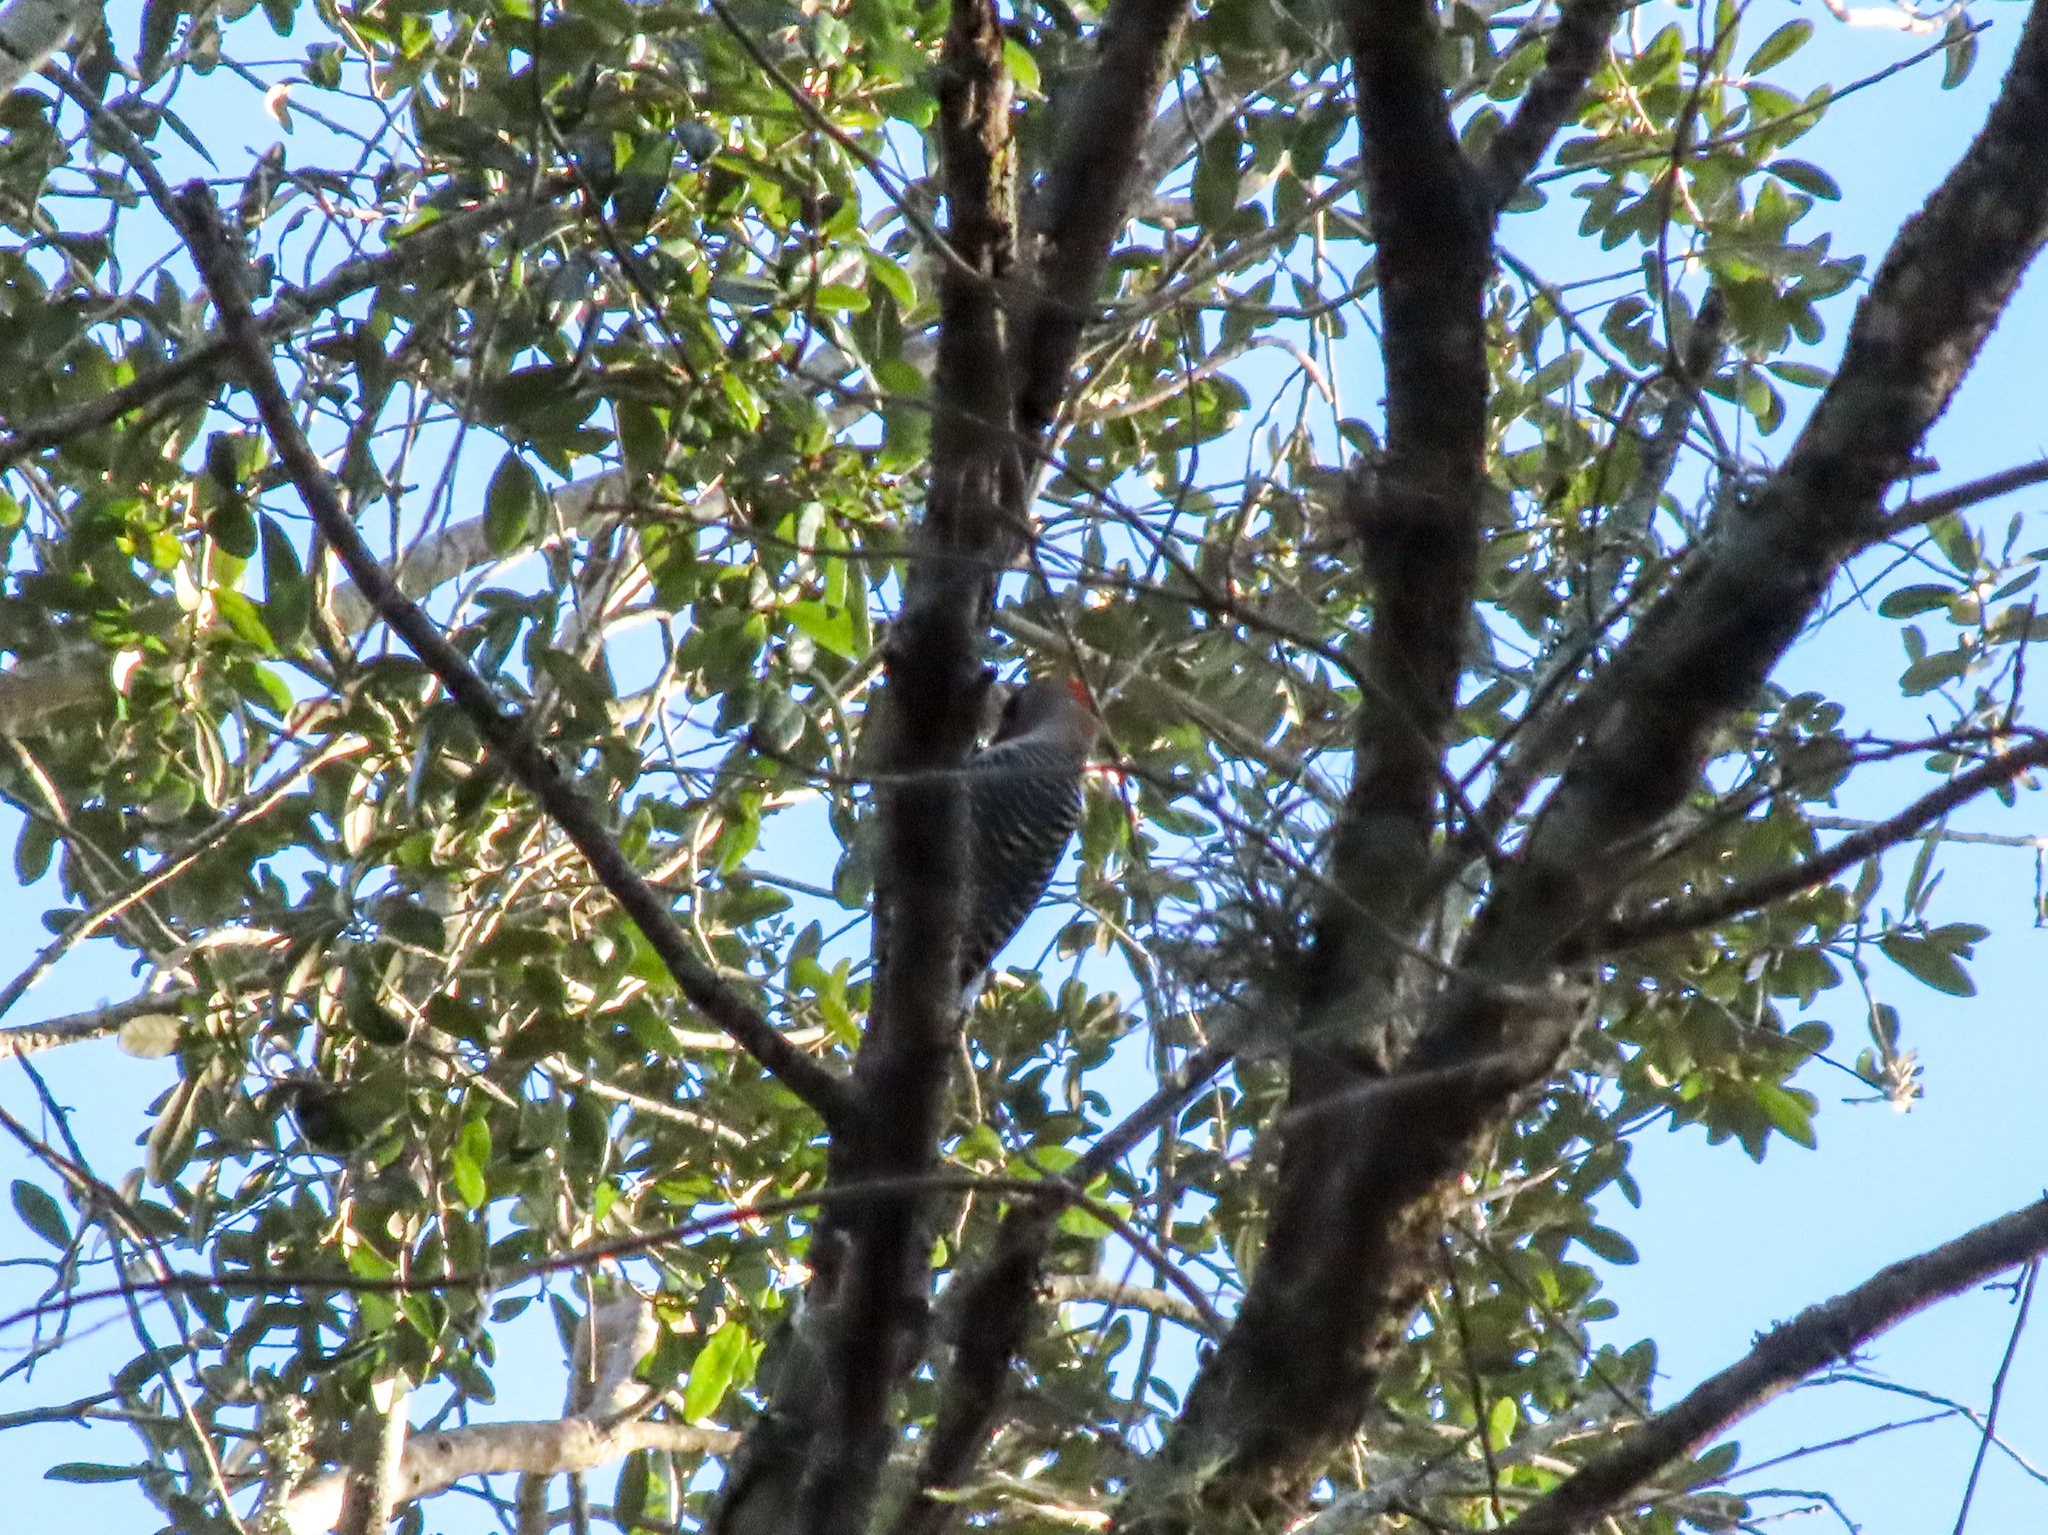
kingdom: Animalia
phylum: Chordata
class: Aves
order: Piciformes
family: Picidae
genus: Melanerpes
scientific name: Melanerpes carolinus
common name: Red-bellied woodpecker
